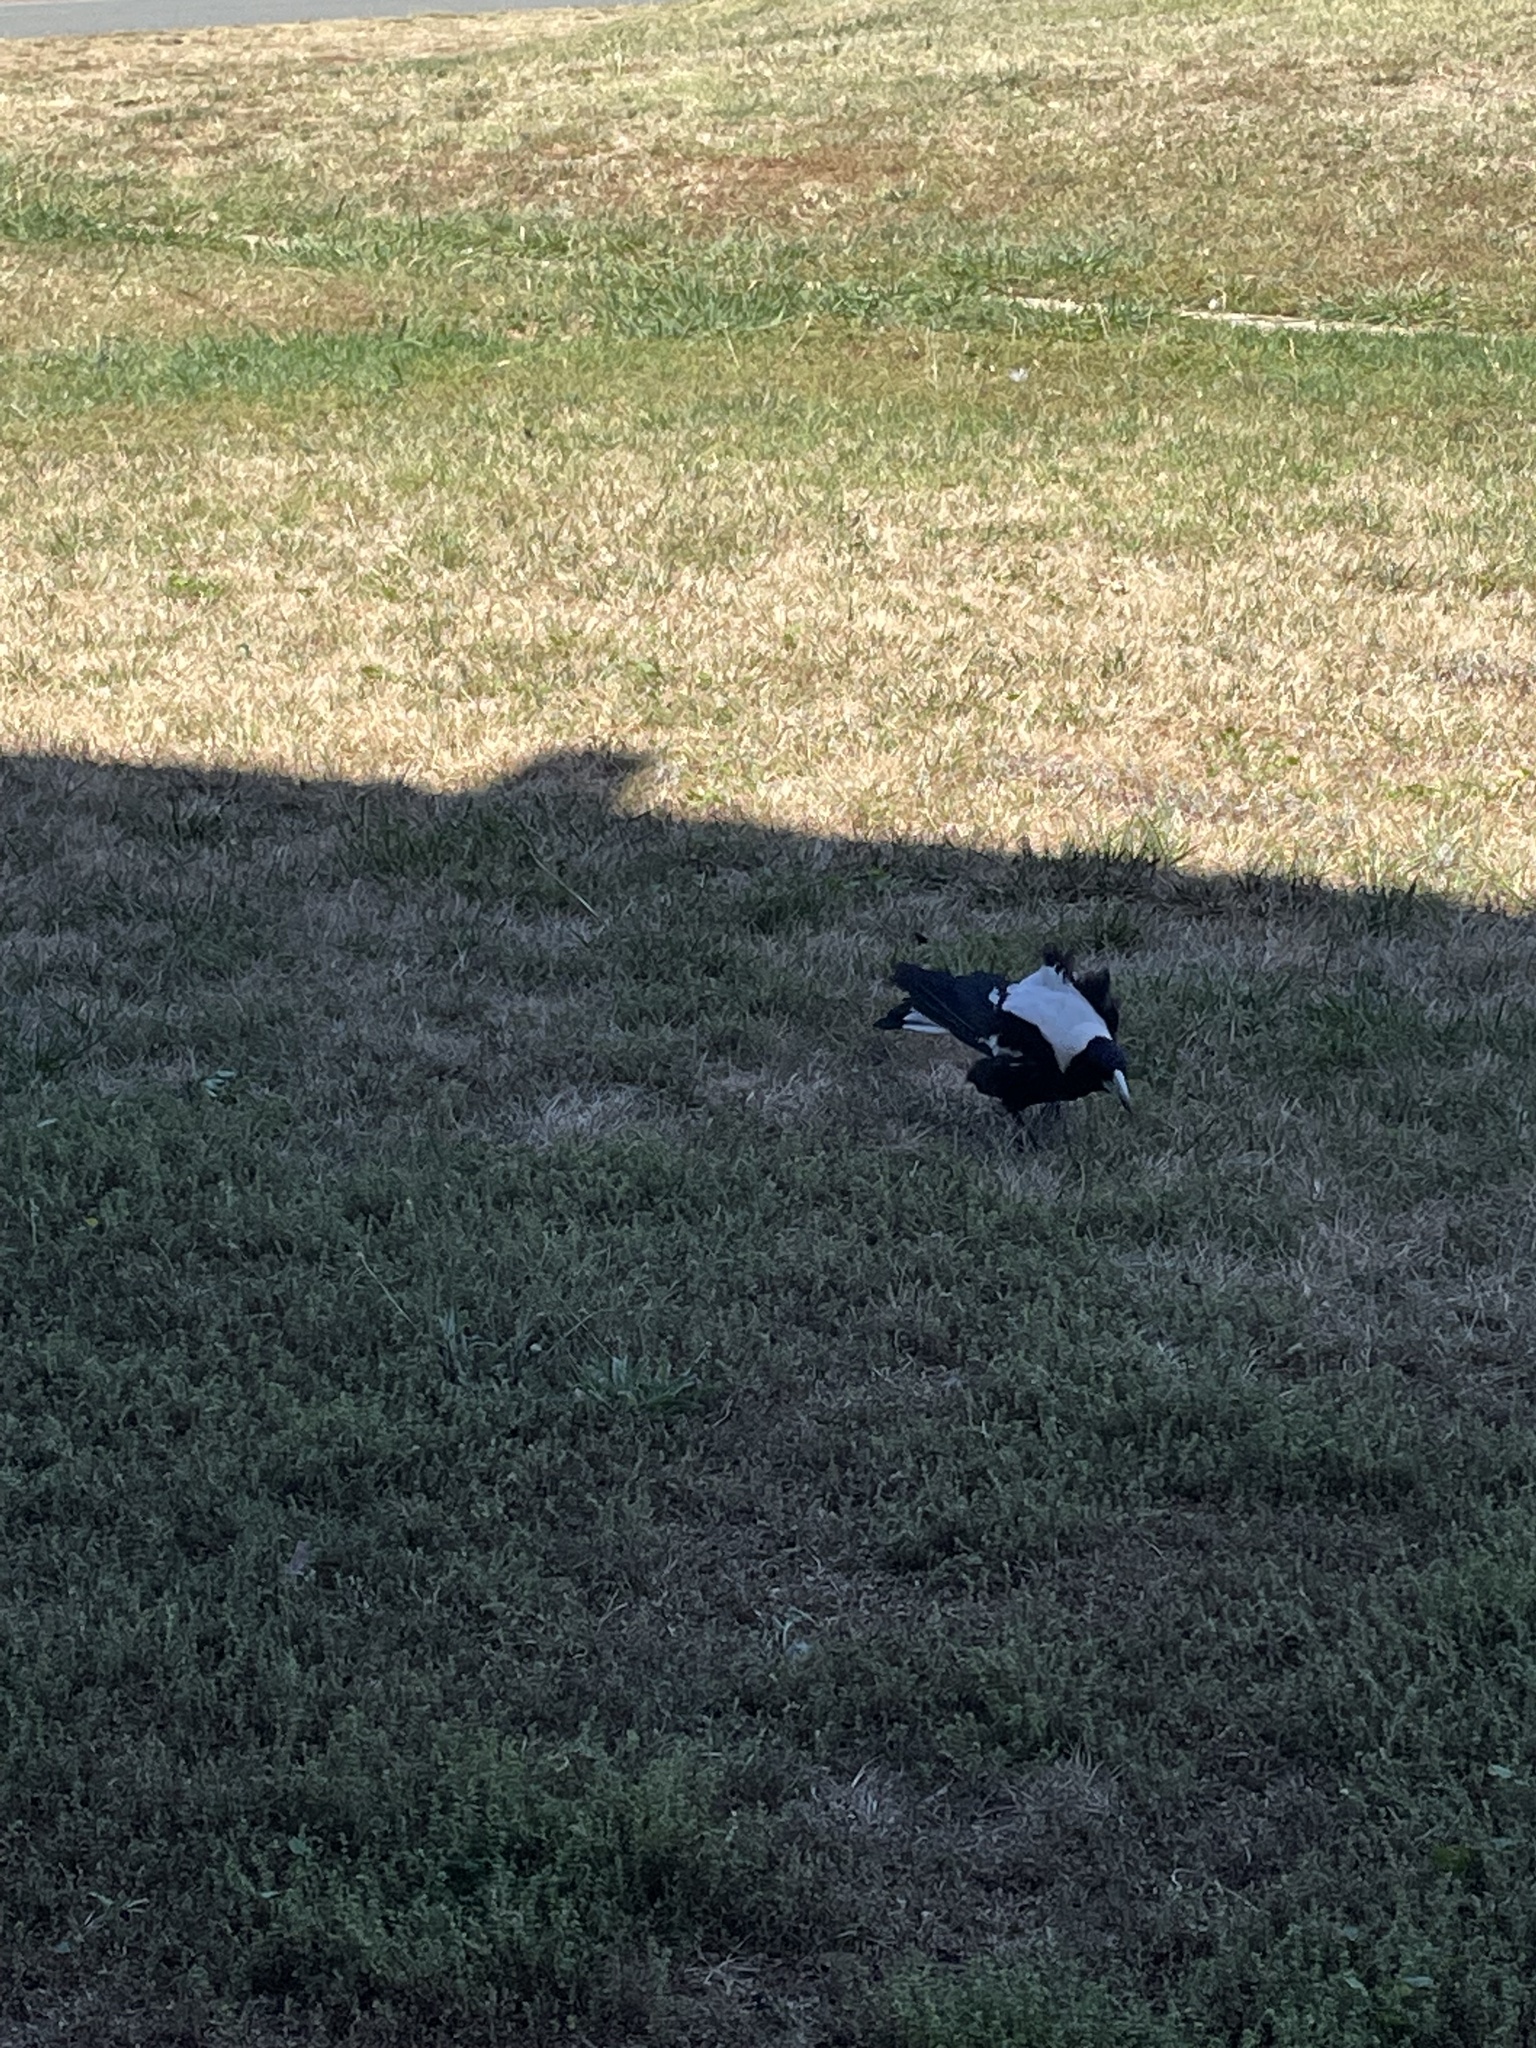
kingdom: Animalia
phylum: Chordata
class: Aves
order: Passeriformes
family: Cracticidae
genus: Gymnorhina
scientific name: Gymnorhina tibicen
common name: Australian magpie
